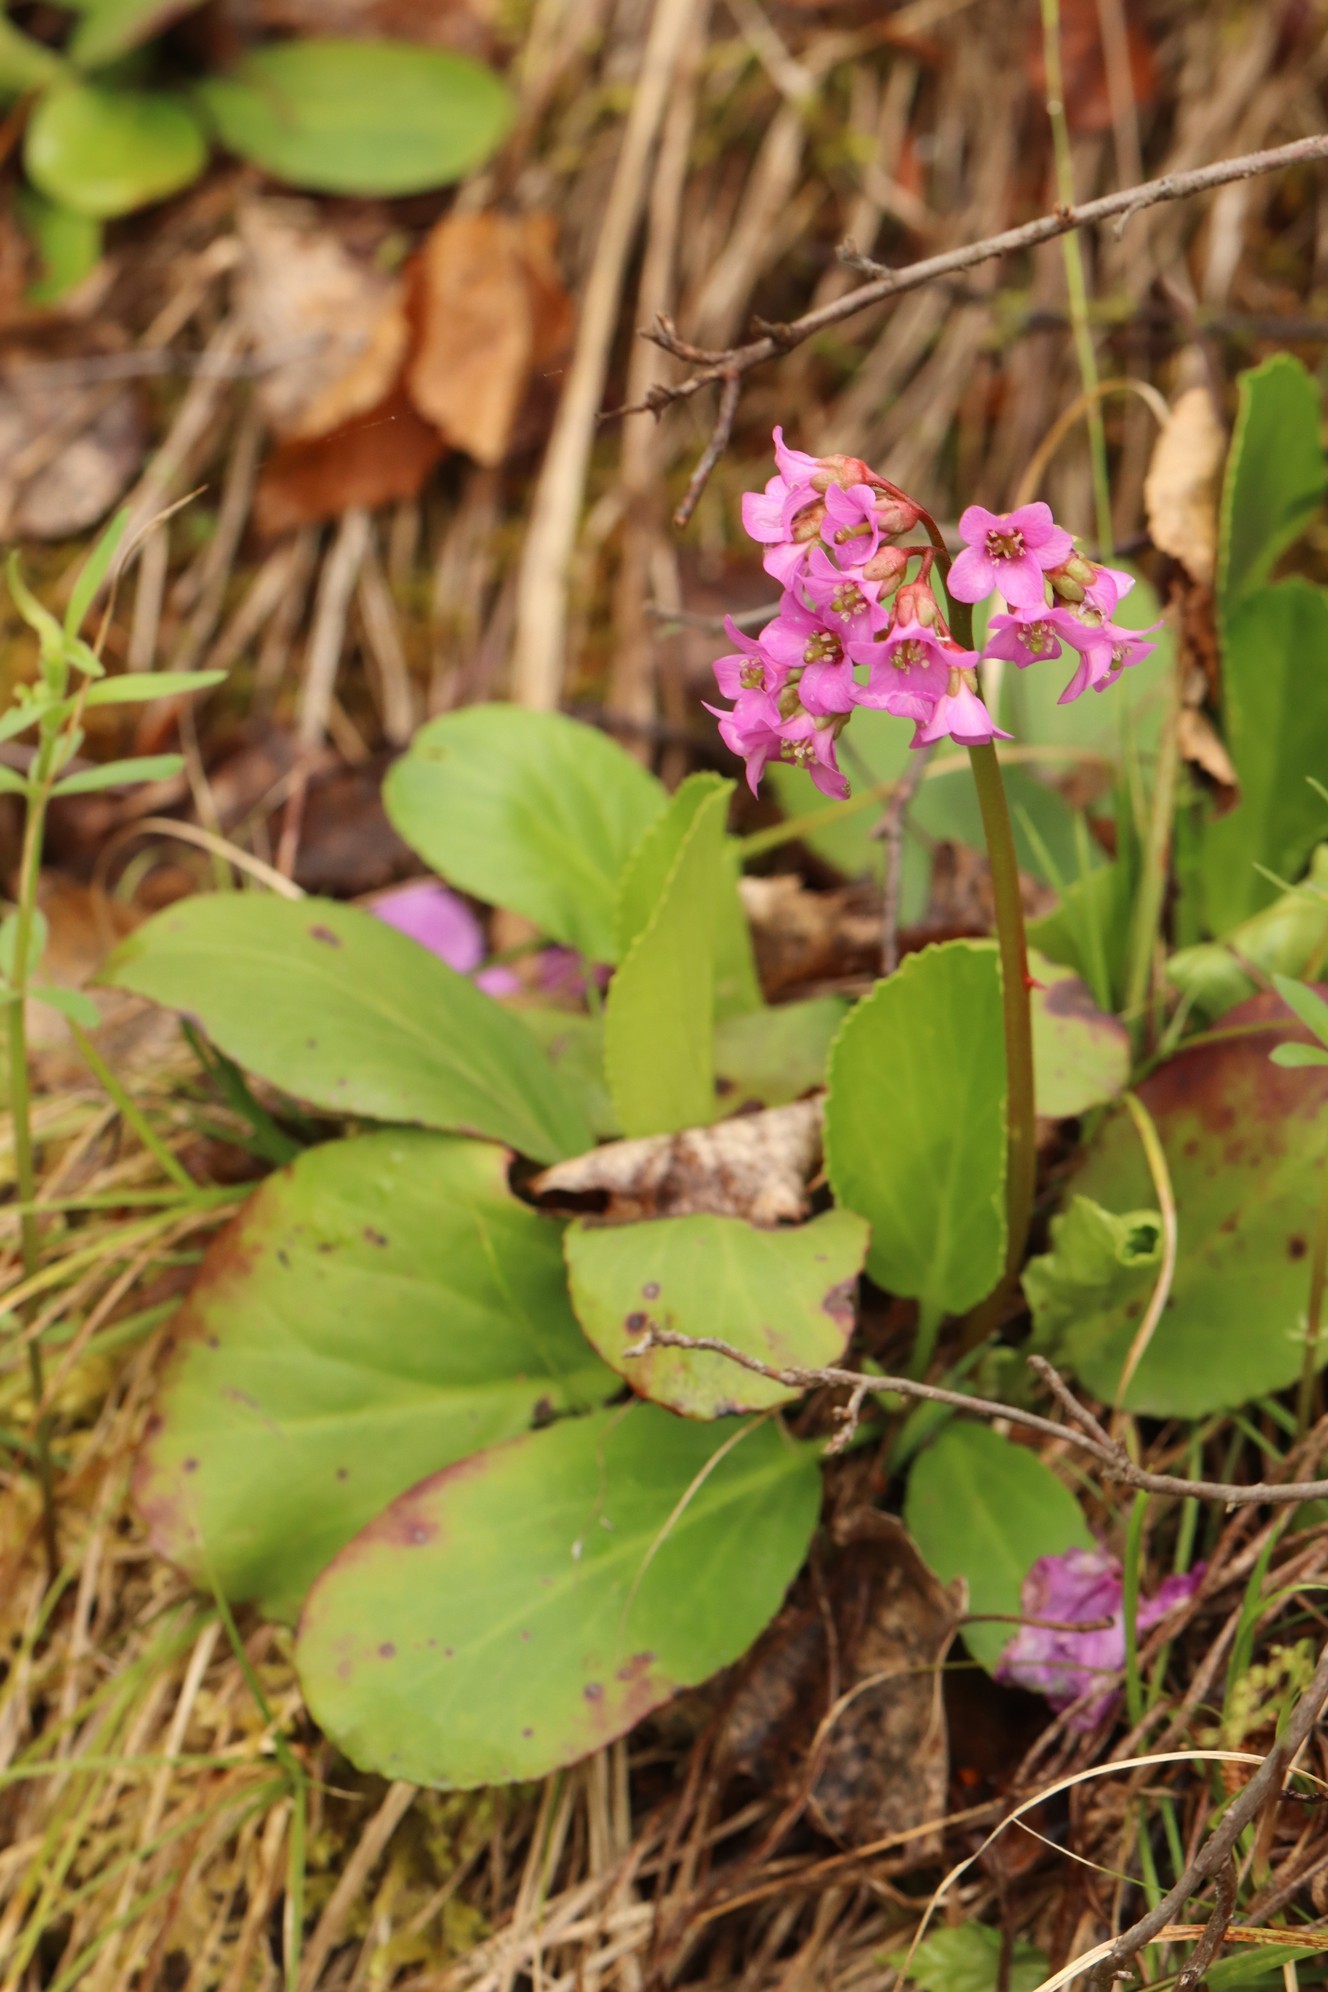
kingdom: Plantae
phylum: Tracheophyta
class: Magnoliopsida
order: Saxifragales
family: Saxifragaceae
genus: Bergenia
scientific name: Bergenia crassifolia
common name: Elephant-ears
